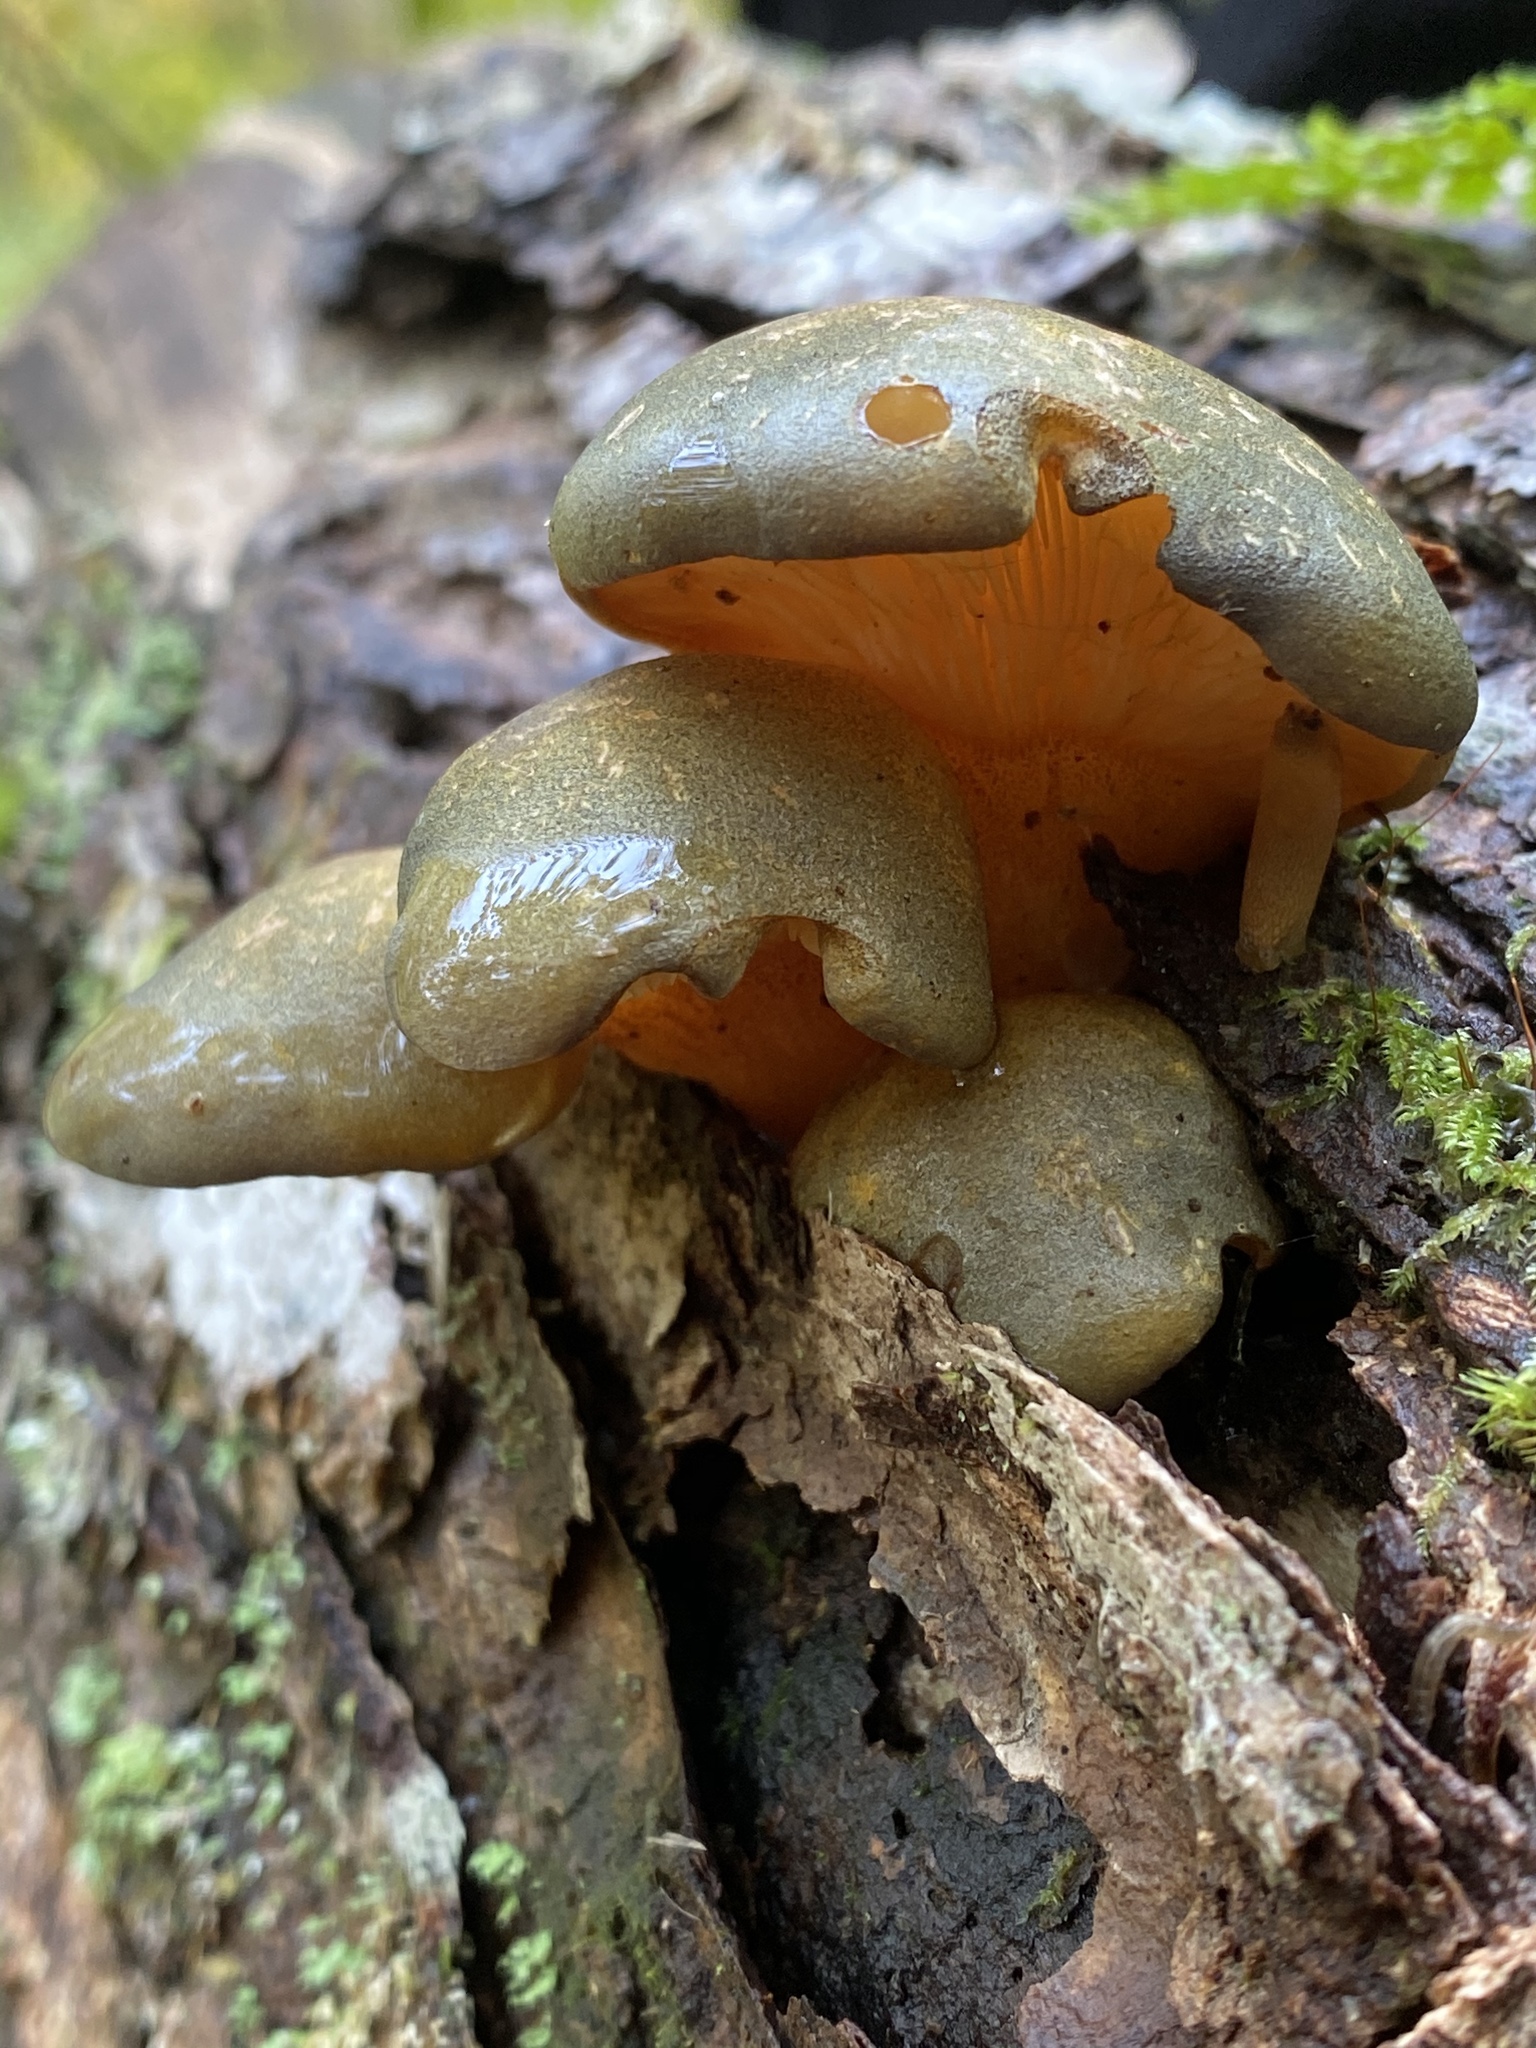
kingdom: Fungi
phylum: Basidiomycota
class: Agaricomycetes
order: Agaricales
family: Sarcomyxaceae
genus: Sarcomyxa
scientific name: Sarcomyxa serotina
